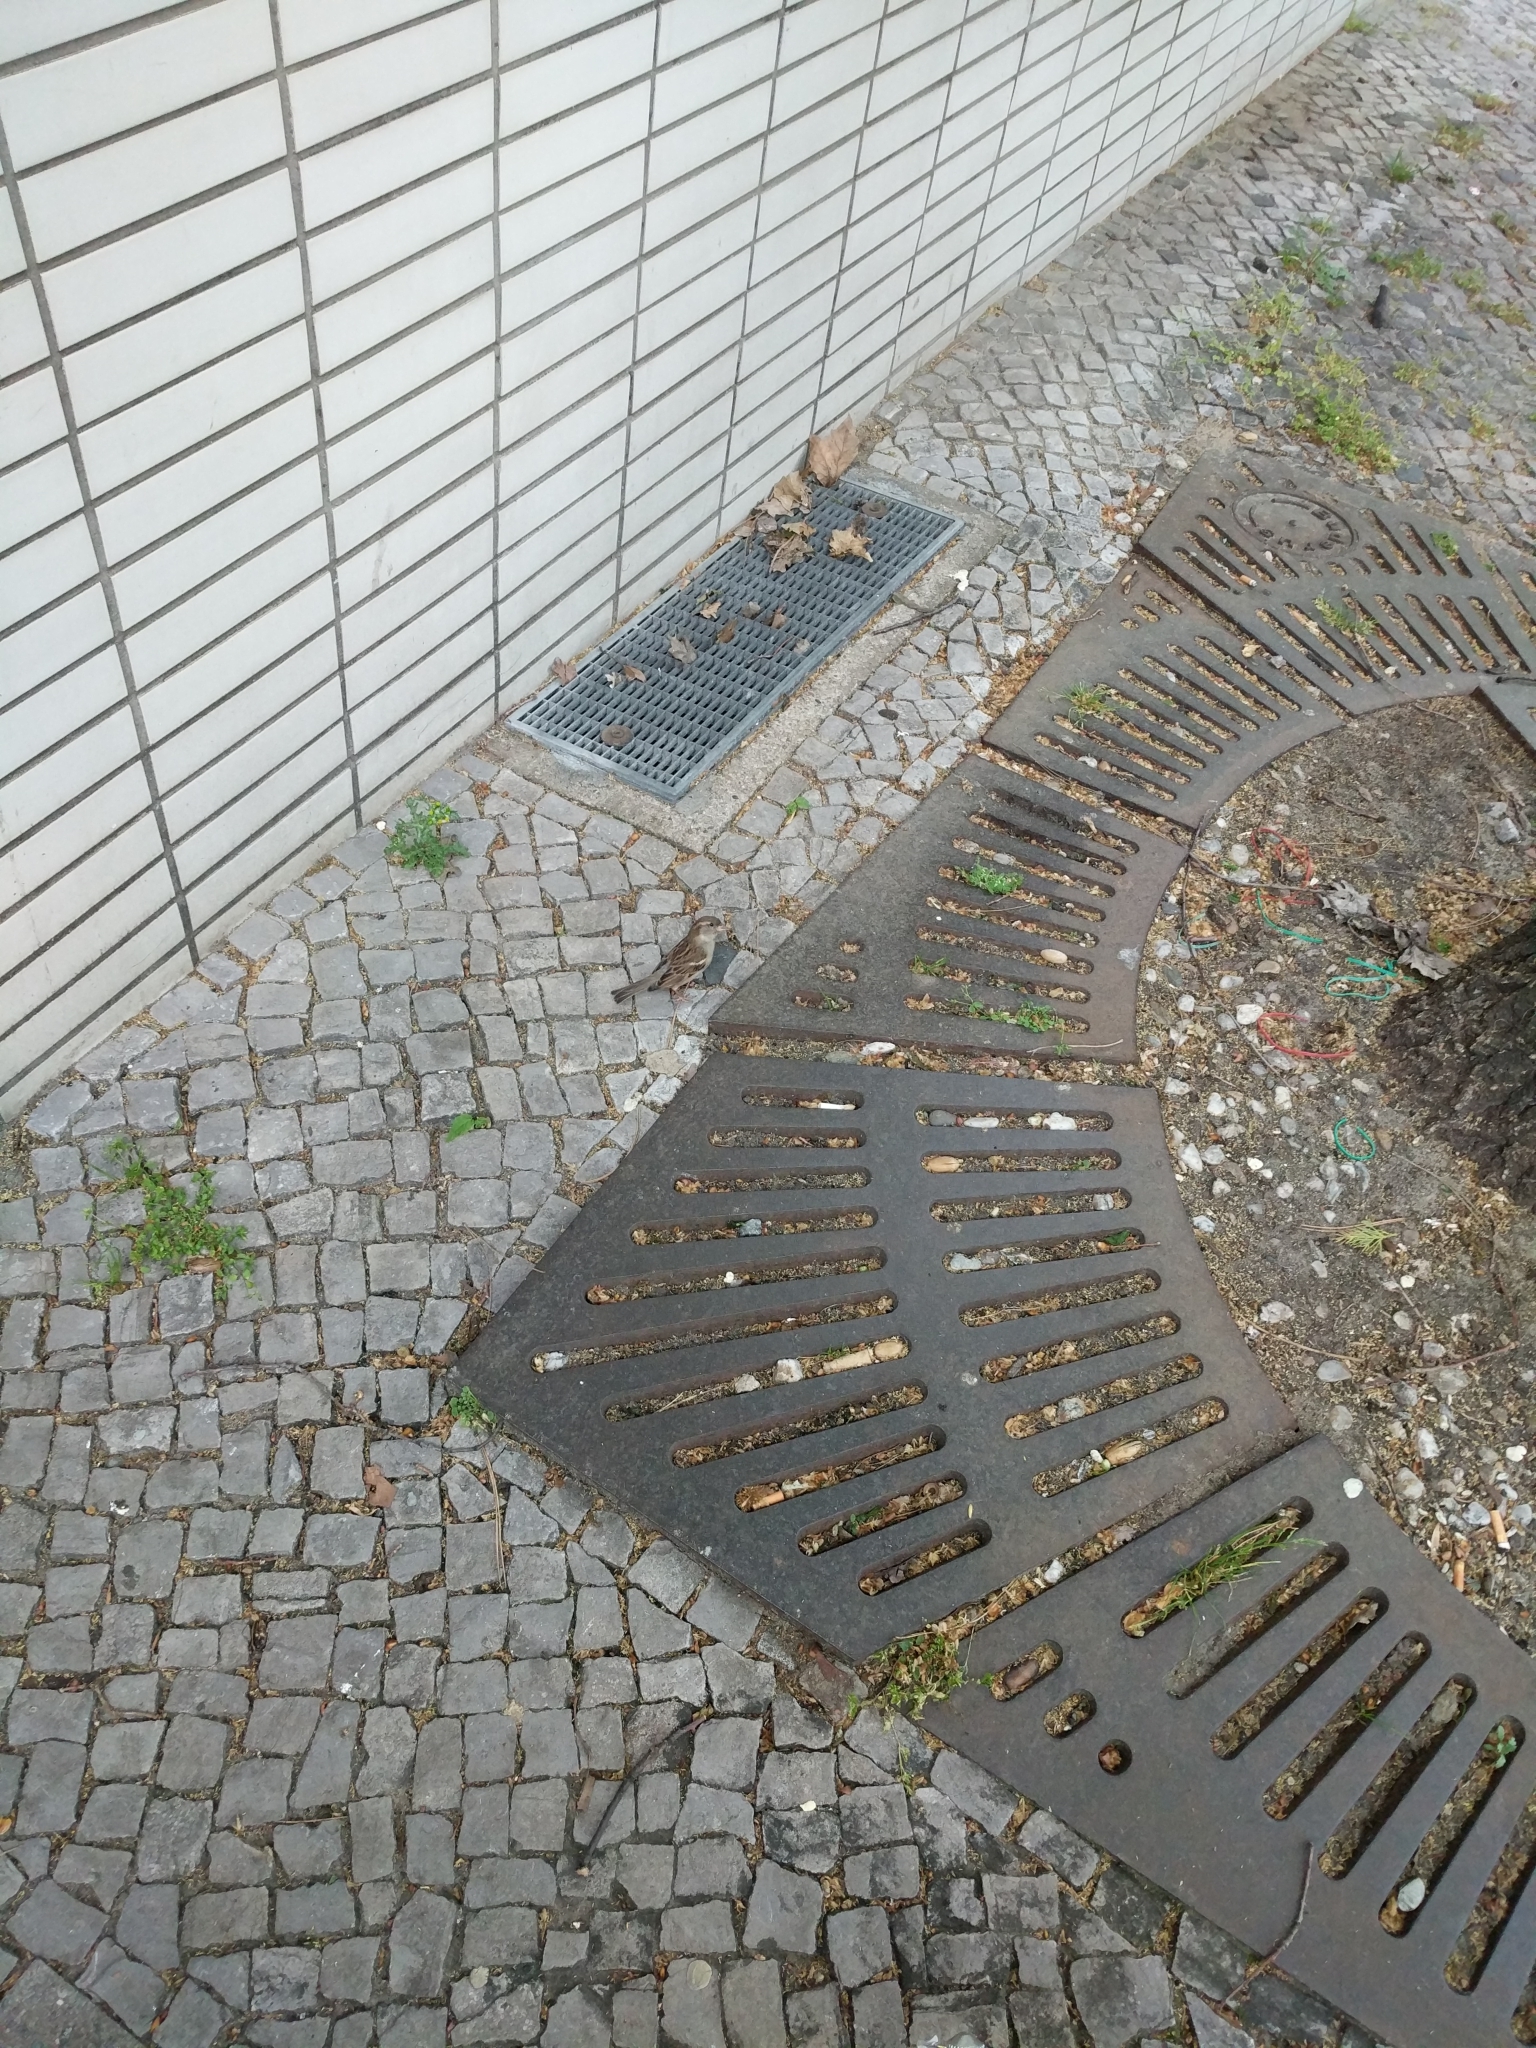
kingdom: Animalia
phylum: Chordata
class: Aves
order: Passeriformes
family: Passeridae
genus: Passer
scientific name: Passer domesticus
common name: House sparrow
